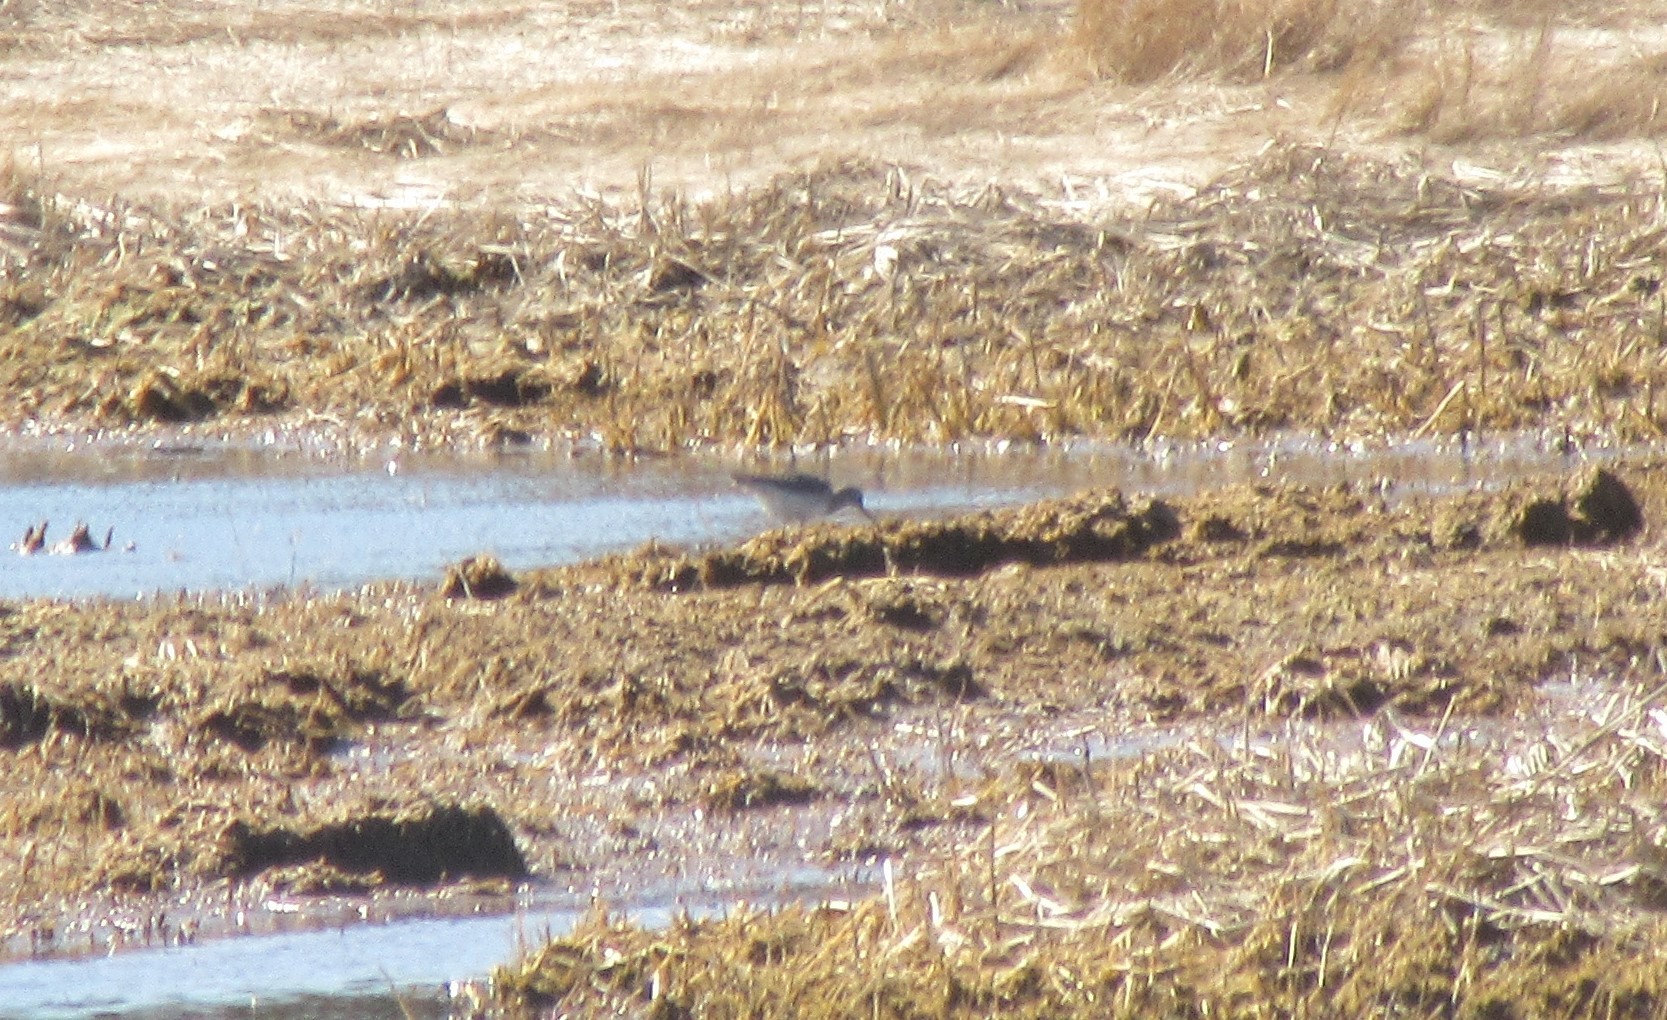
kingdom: Animalia
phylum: Chordata
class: Aves
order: Charadriiformes
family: Scolopacidae
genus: Tringa
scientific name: Tringa melanoleuca
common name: Greater yellowlegs
